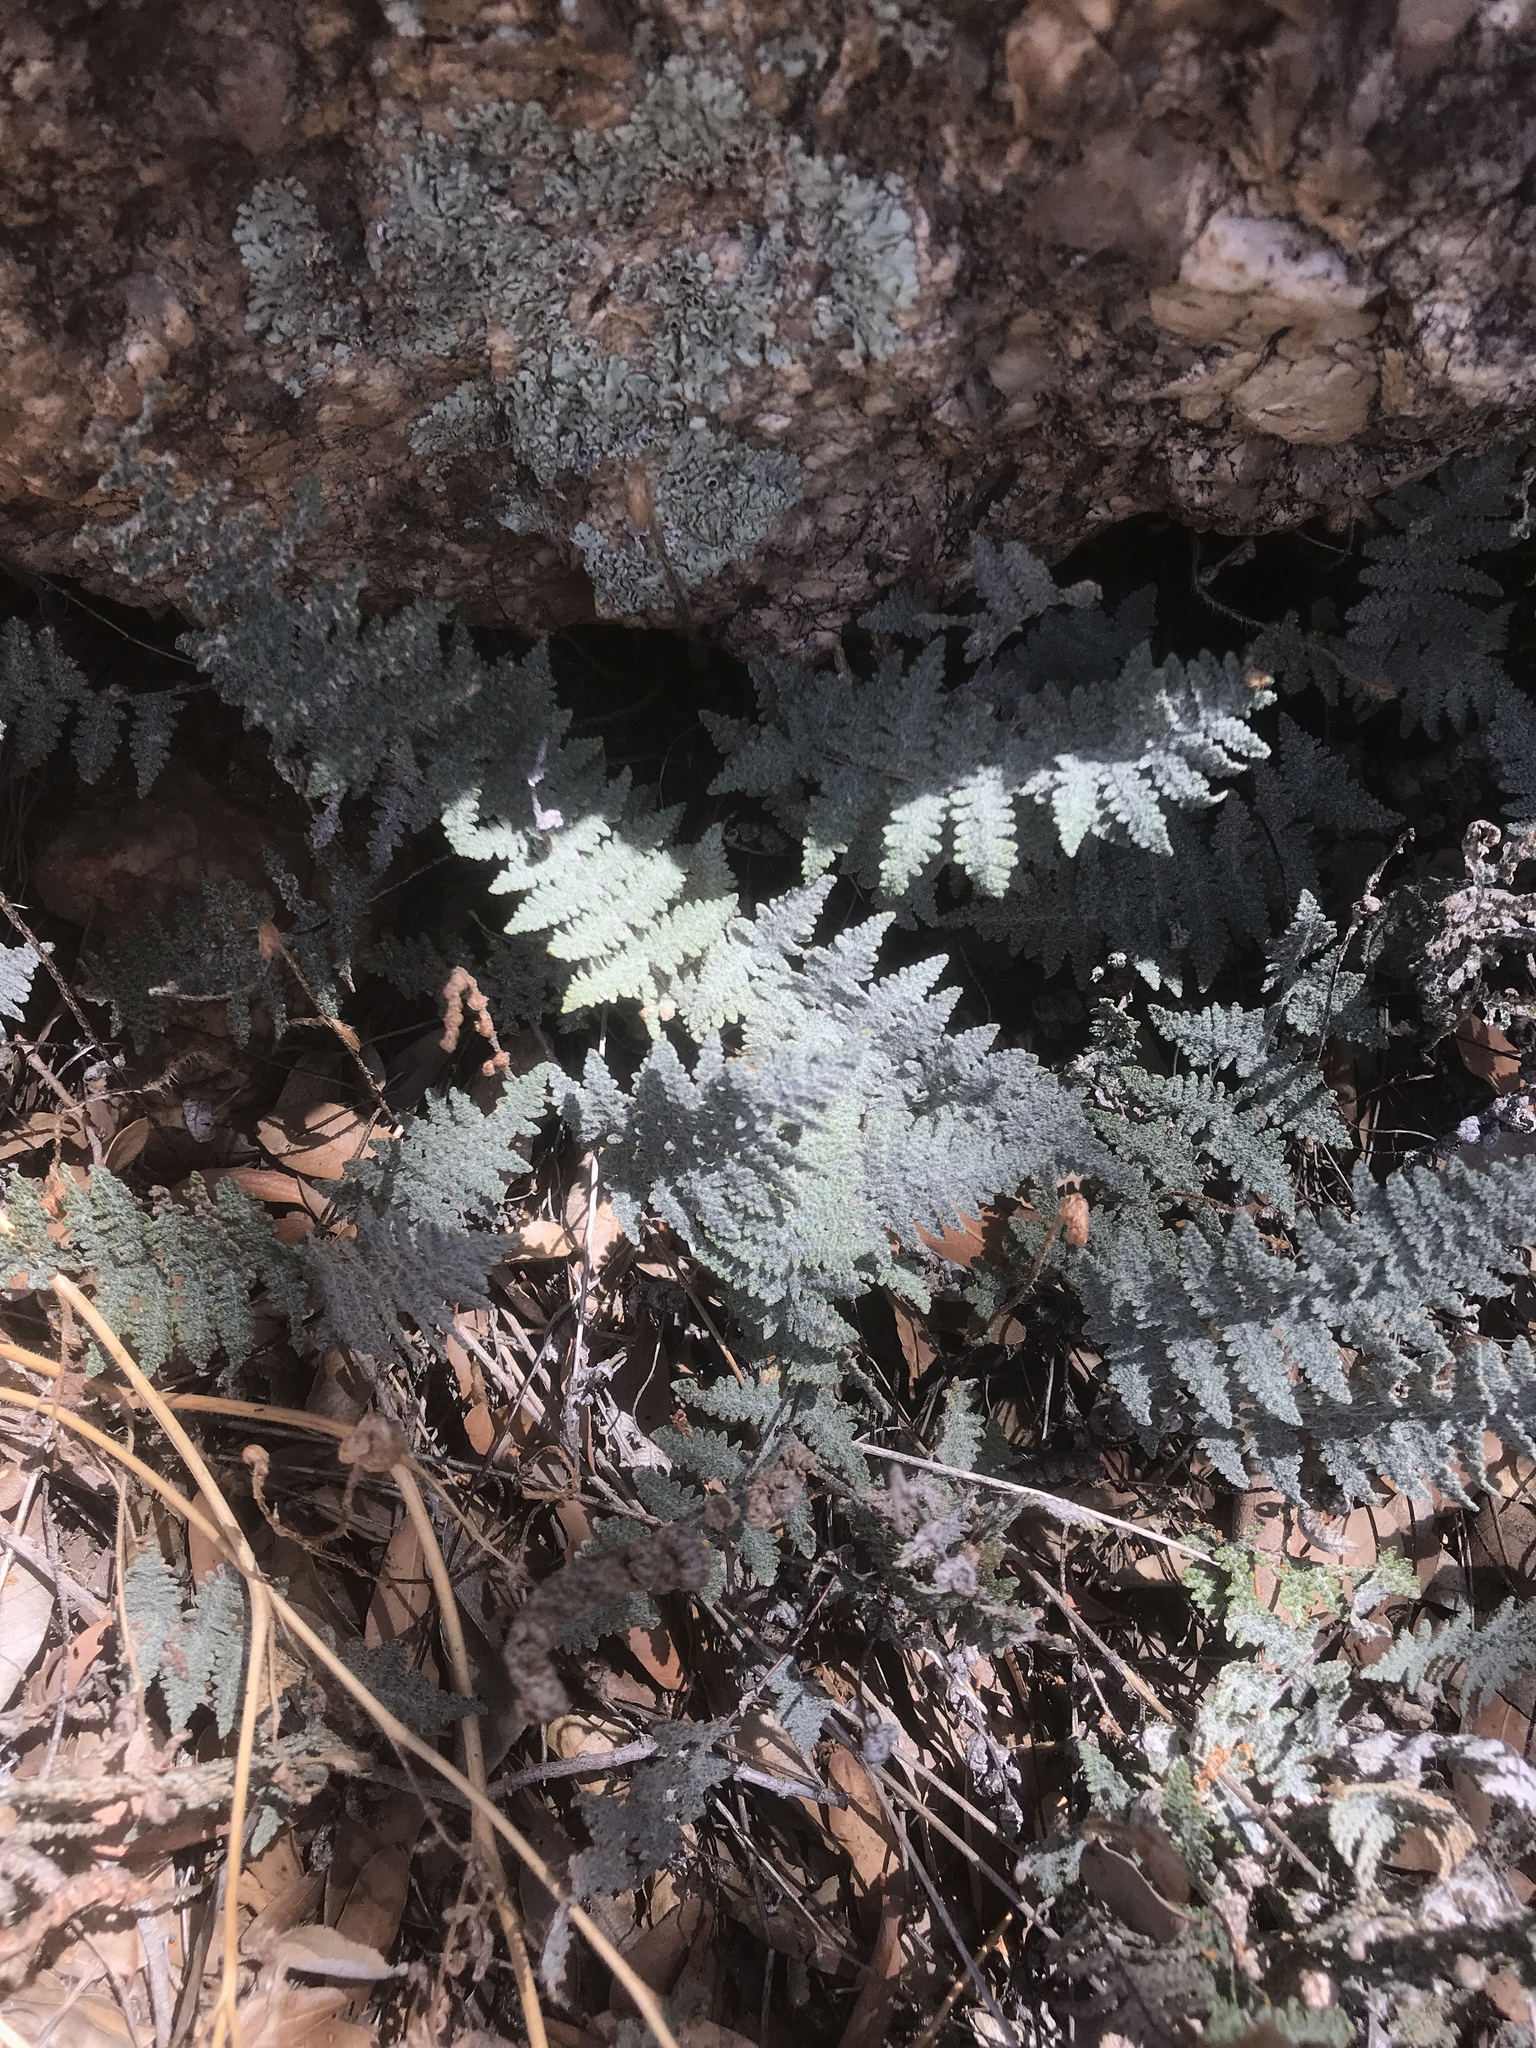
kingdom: Plantae
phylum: Tracheophyta
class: Polypodiopsida
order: Polypodiales
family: Pteridaceae
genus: Myriopteris
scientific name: Myriopteris lindheimeri
